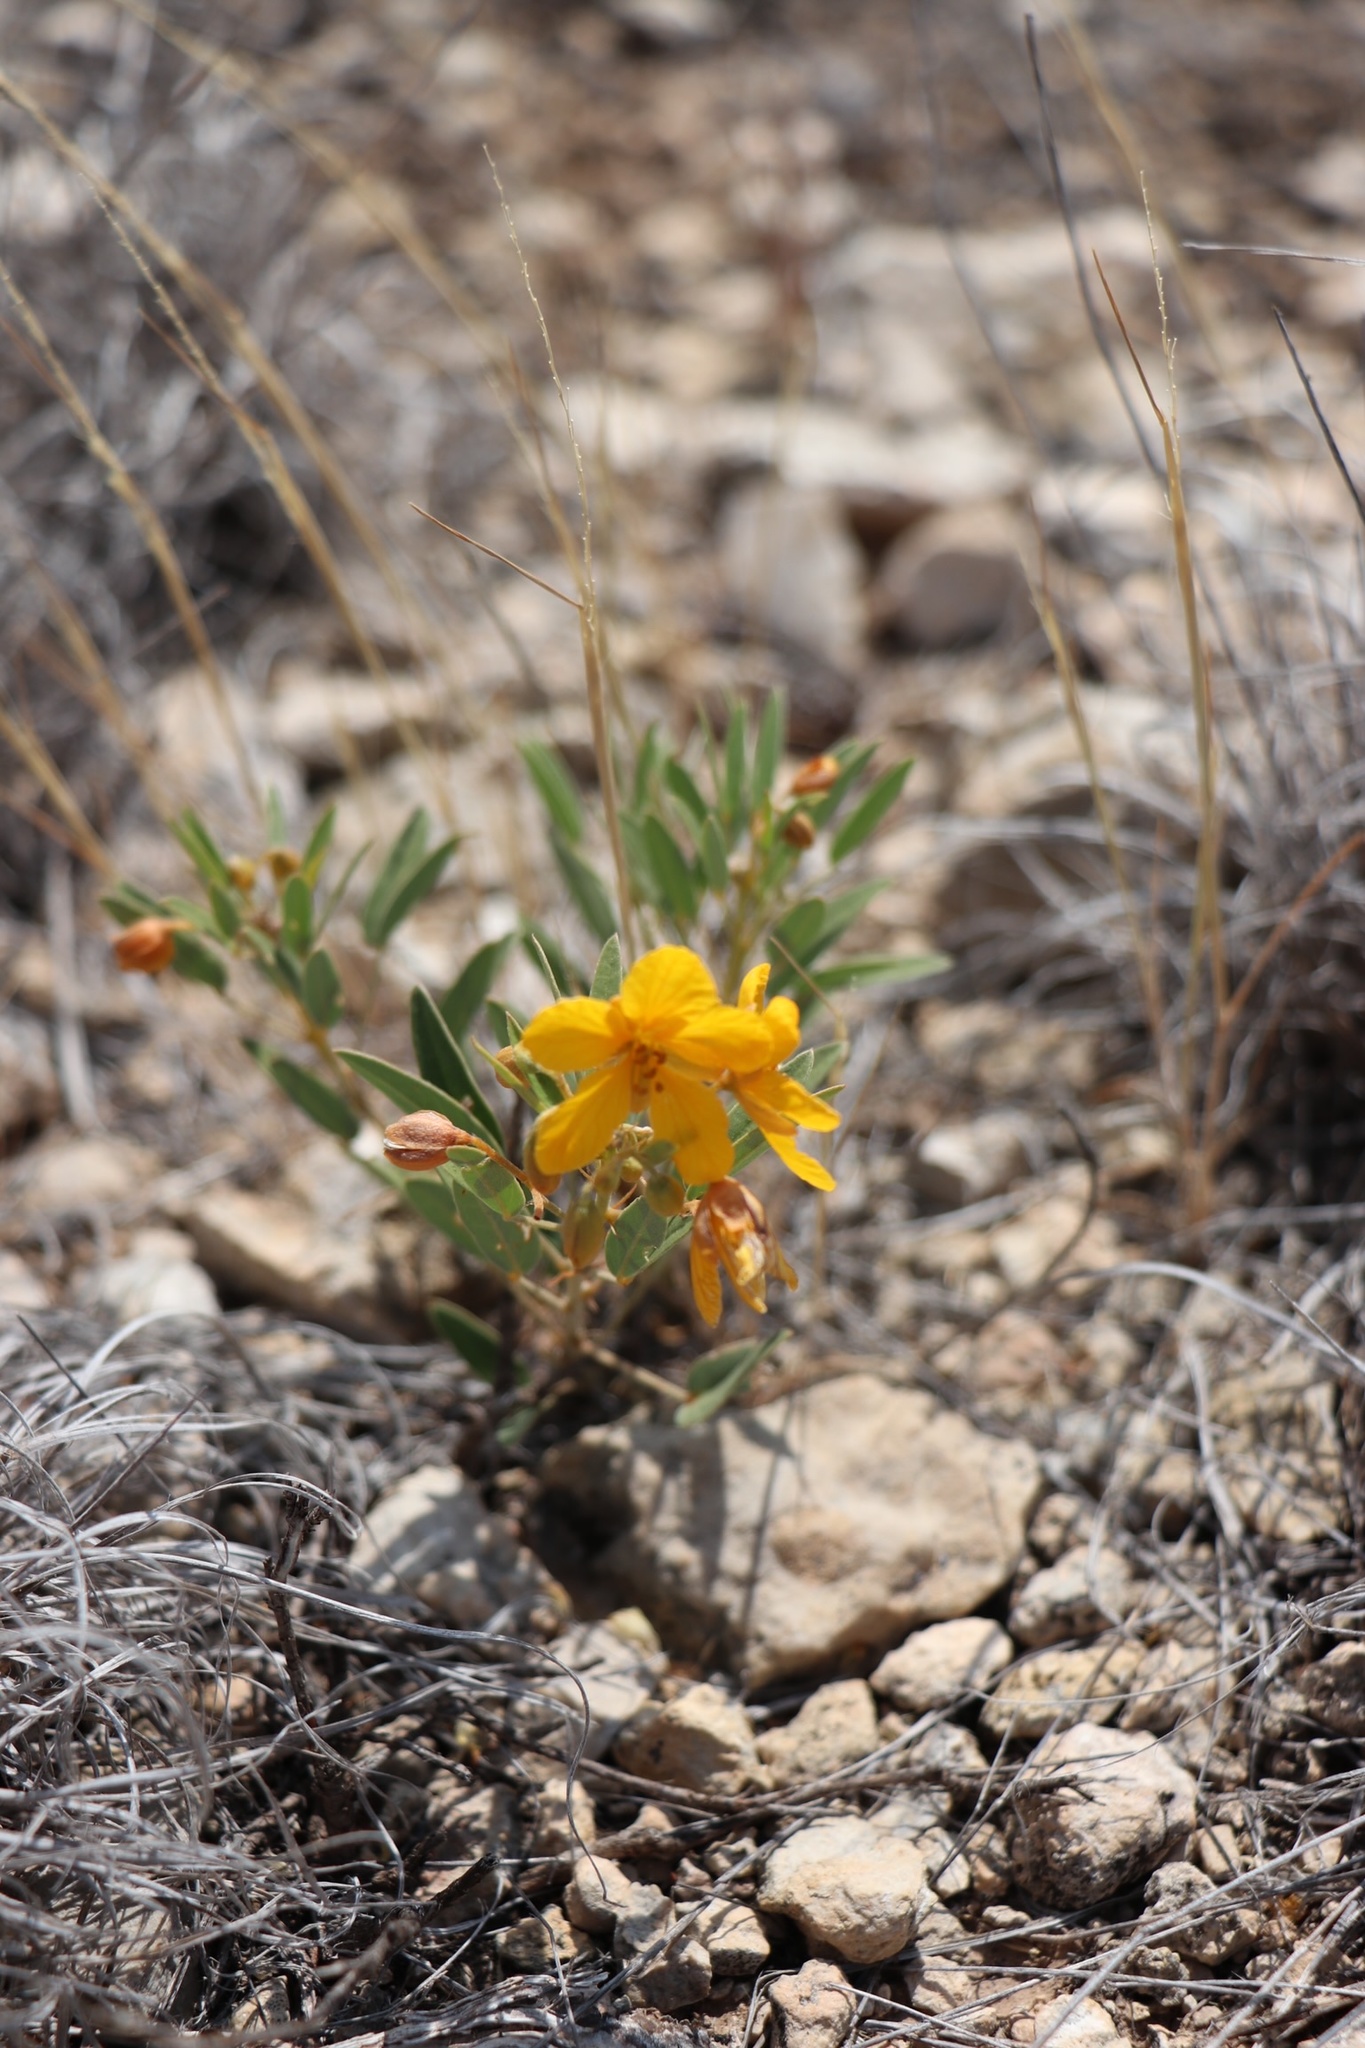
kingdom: Plantae
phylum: Tracheophyta
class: Magnoliopsida
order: Fabales
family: Fabaceae
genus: Senna
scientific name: Senna roemeriana
